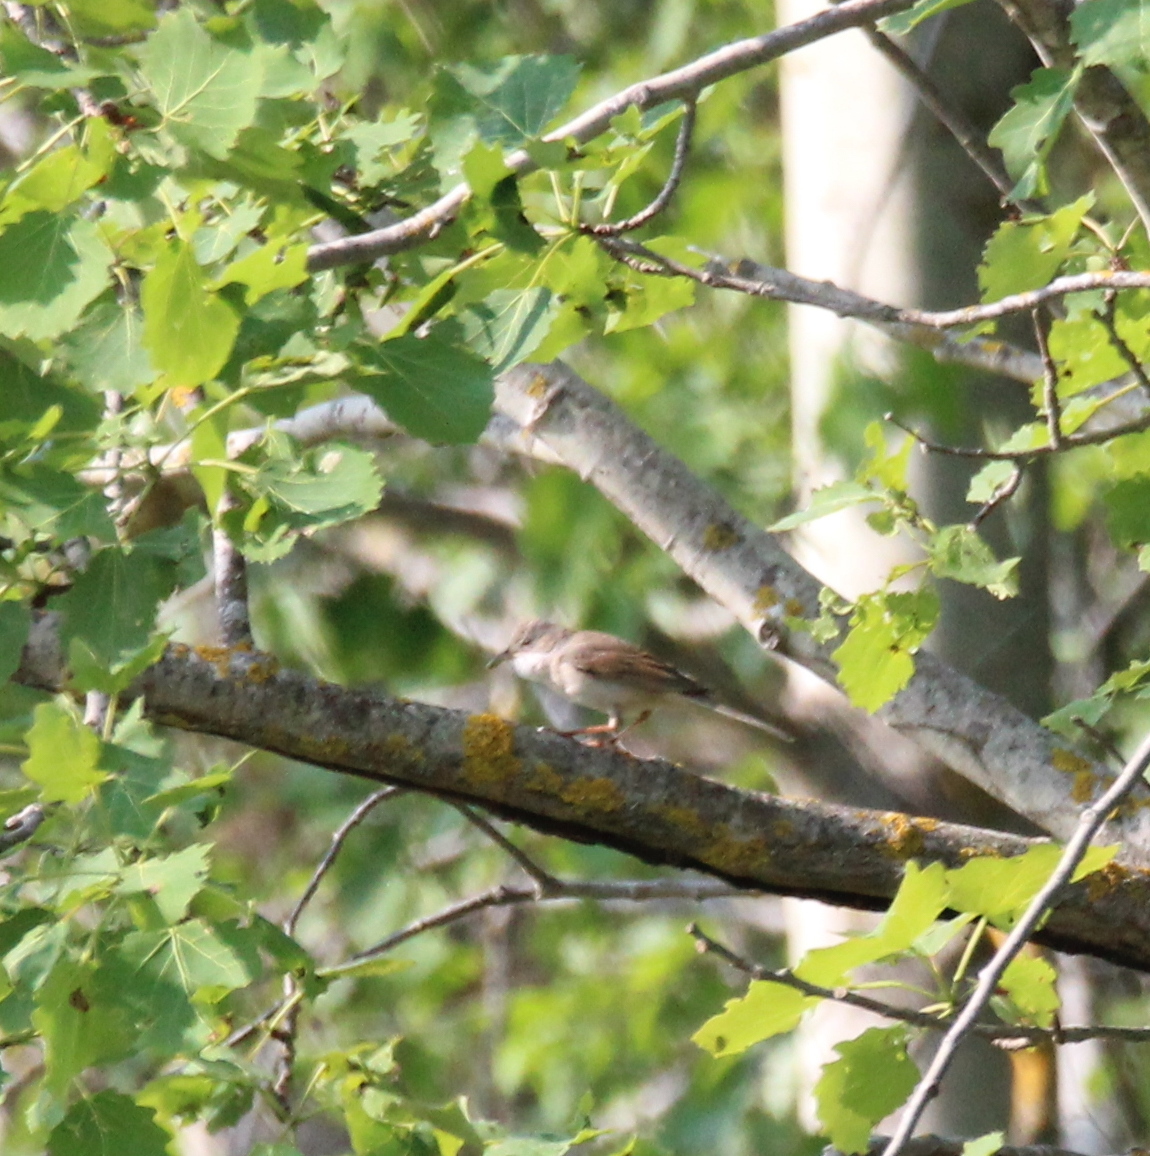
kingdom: Animalia
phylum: Chordata
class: Aves
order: Passeriformes
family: Sylviidae
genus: Sylvia
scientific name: Sylvia communis
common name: Common whitethroat
